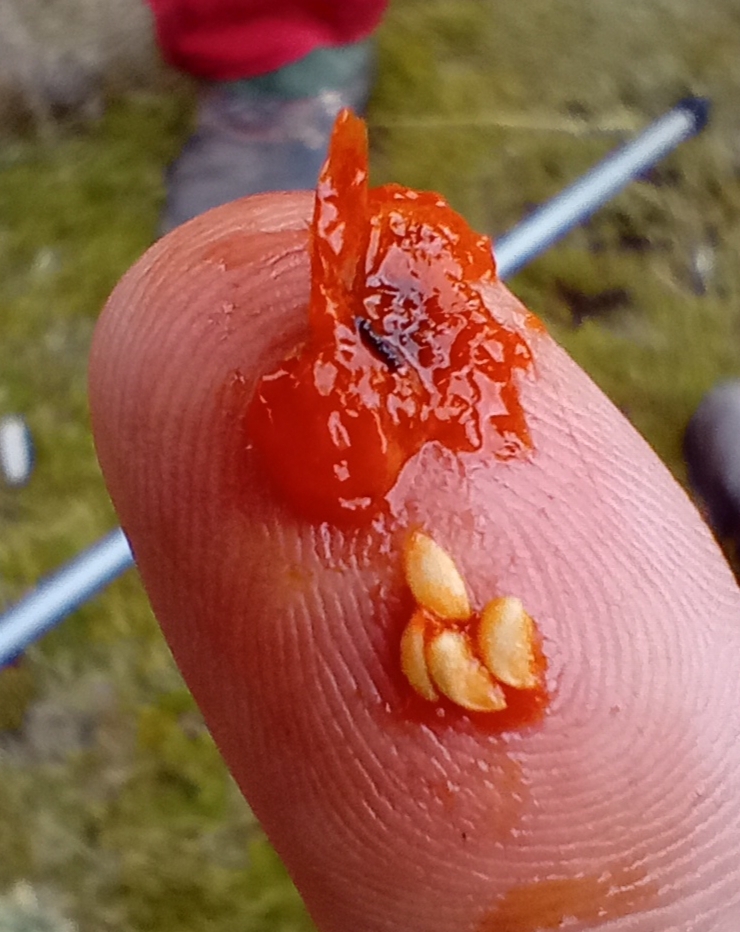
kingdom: Plantae
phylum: Tracheophyta
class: Magnoliopsida
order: Gentianales
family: Rubiaceae
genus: Coprosma
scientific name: Coprosma perpusilla
